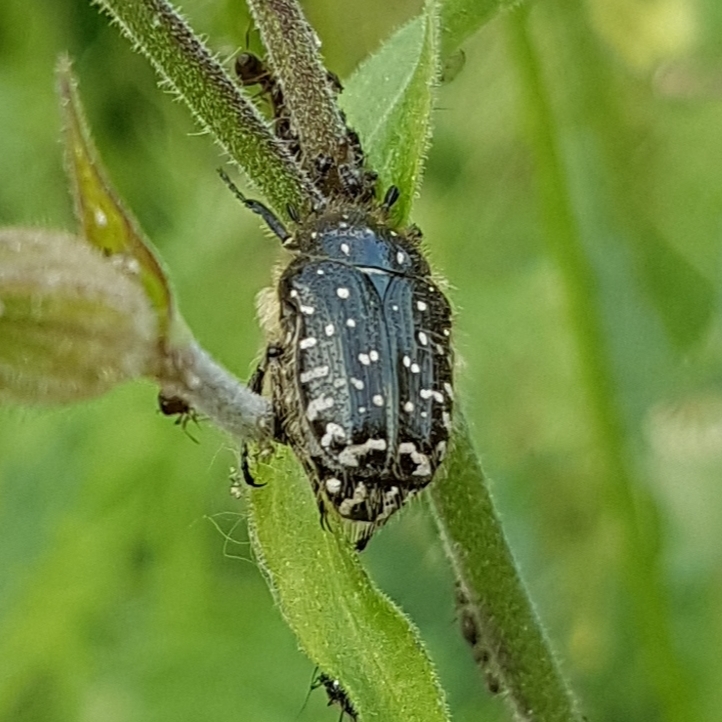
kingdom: Animalia
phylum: Arthropoda
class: Insecta
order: Coleoptera
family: Scarabaeidae
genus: Oxythyrea
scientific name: Oxythyrea funesta
